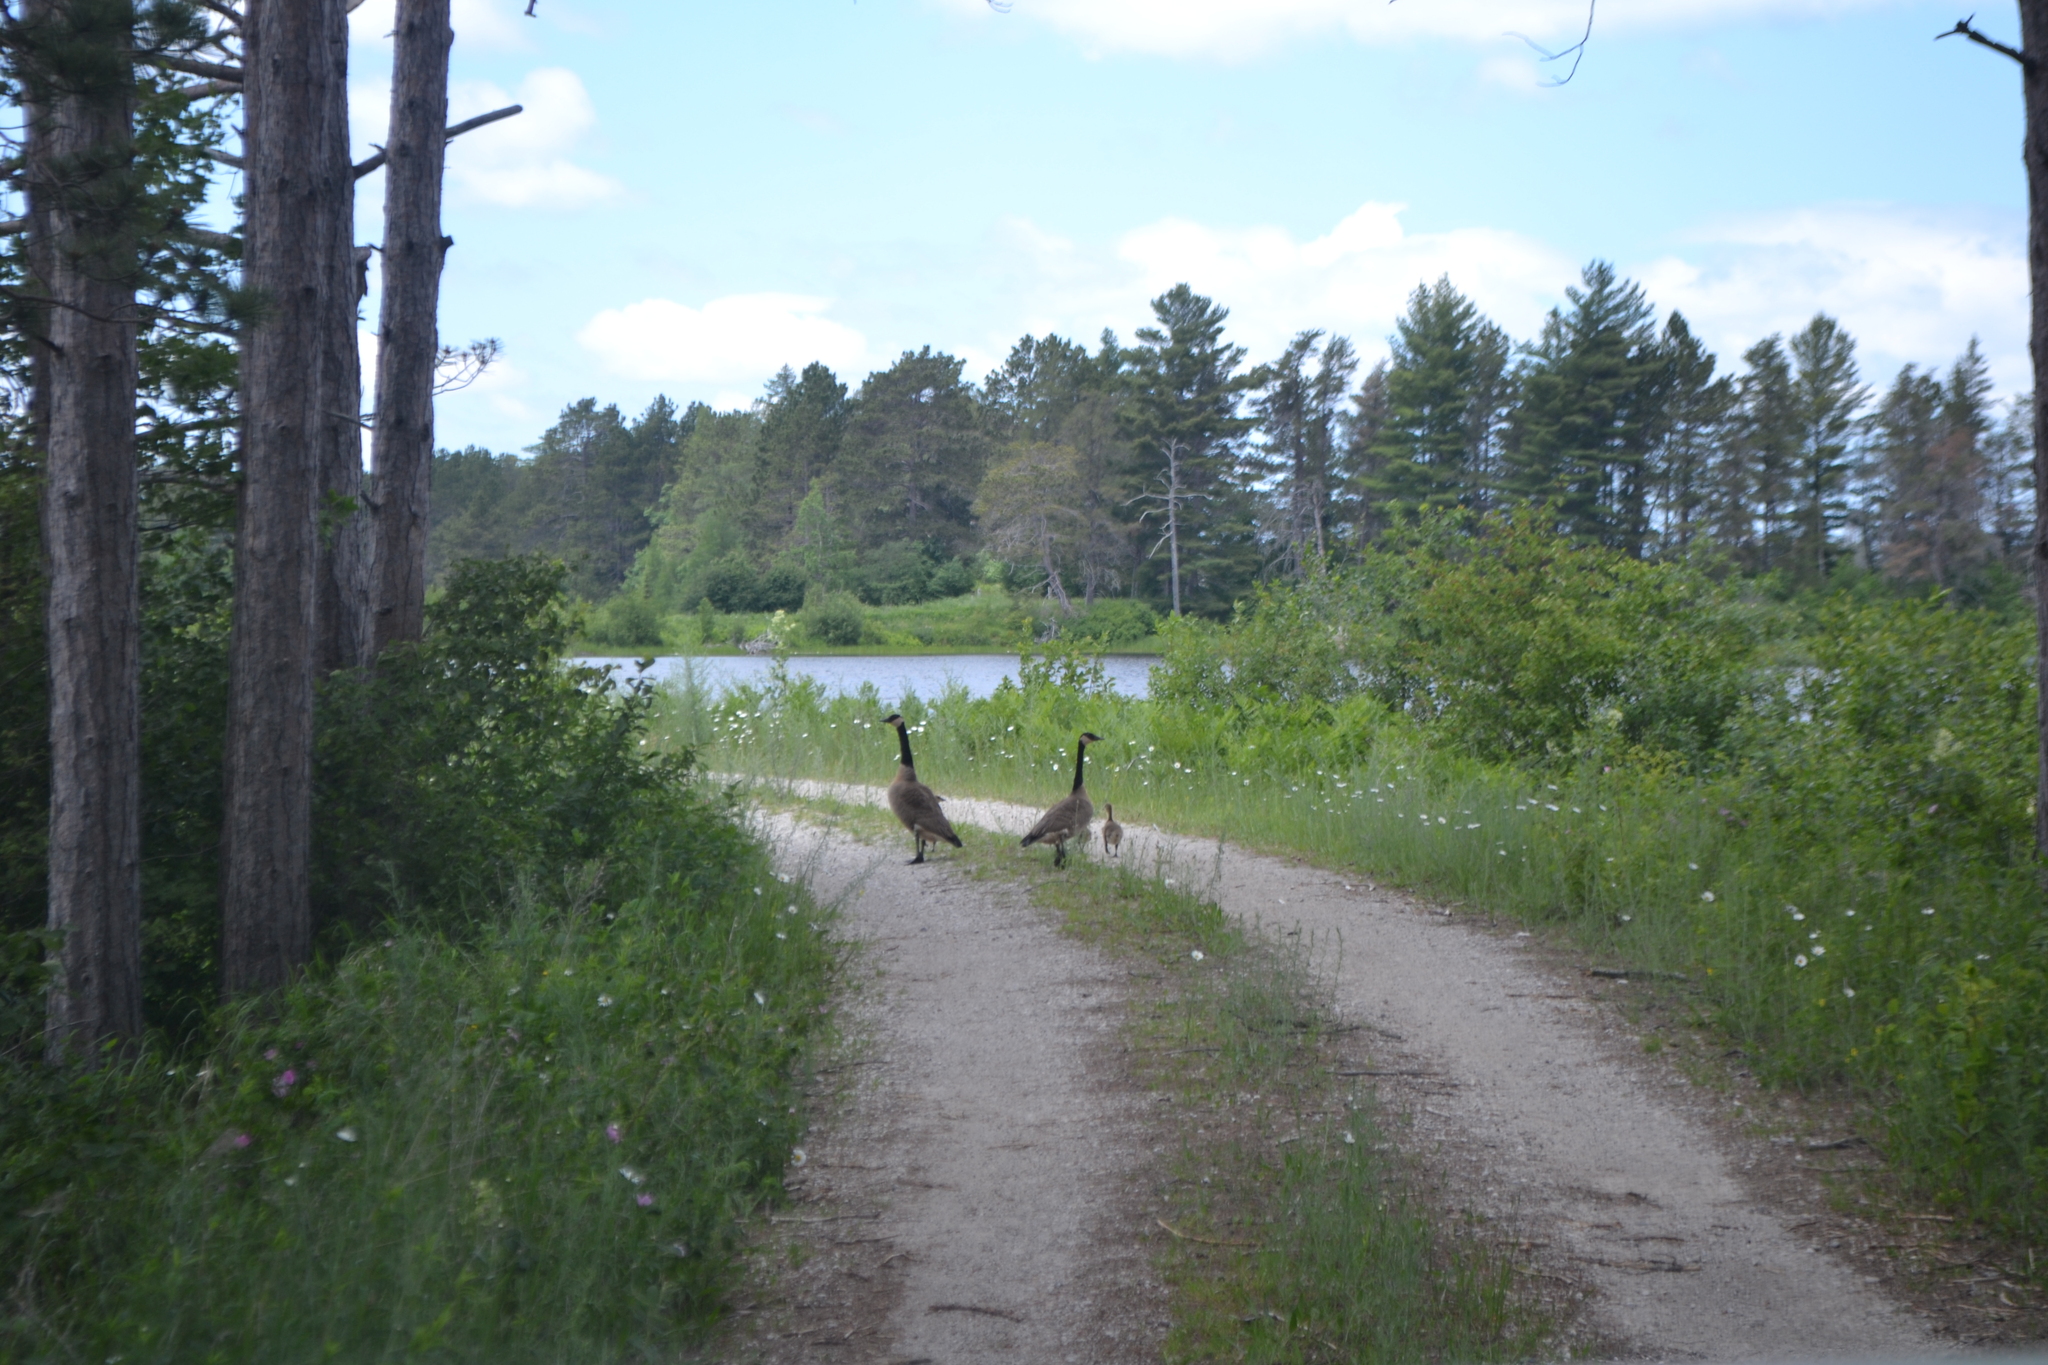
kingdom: Animalia
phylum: Chordata
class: Aves
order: Anseriformes
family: Anatidae
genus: Branta
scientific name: Branta canadensis
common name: Canada goose
